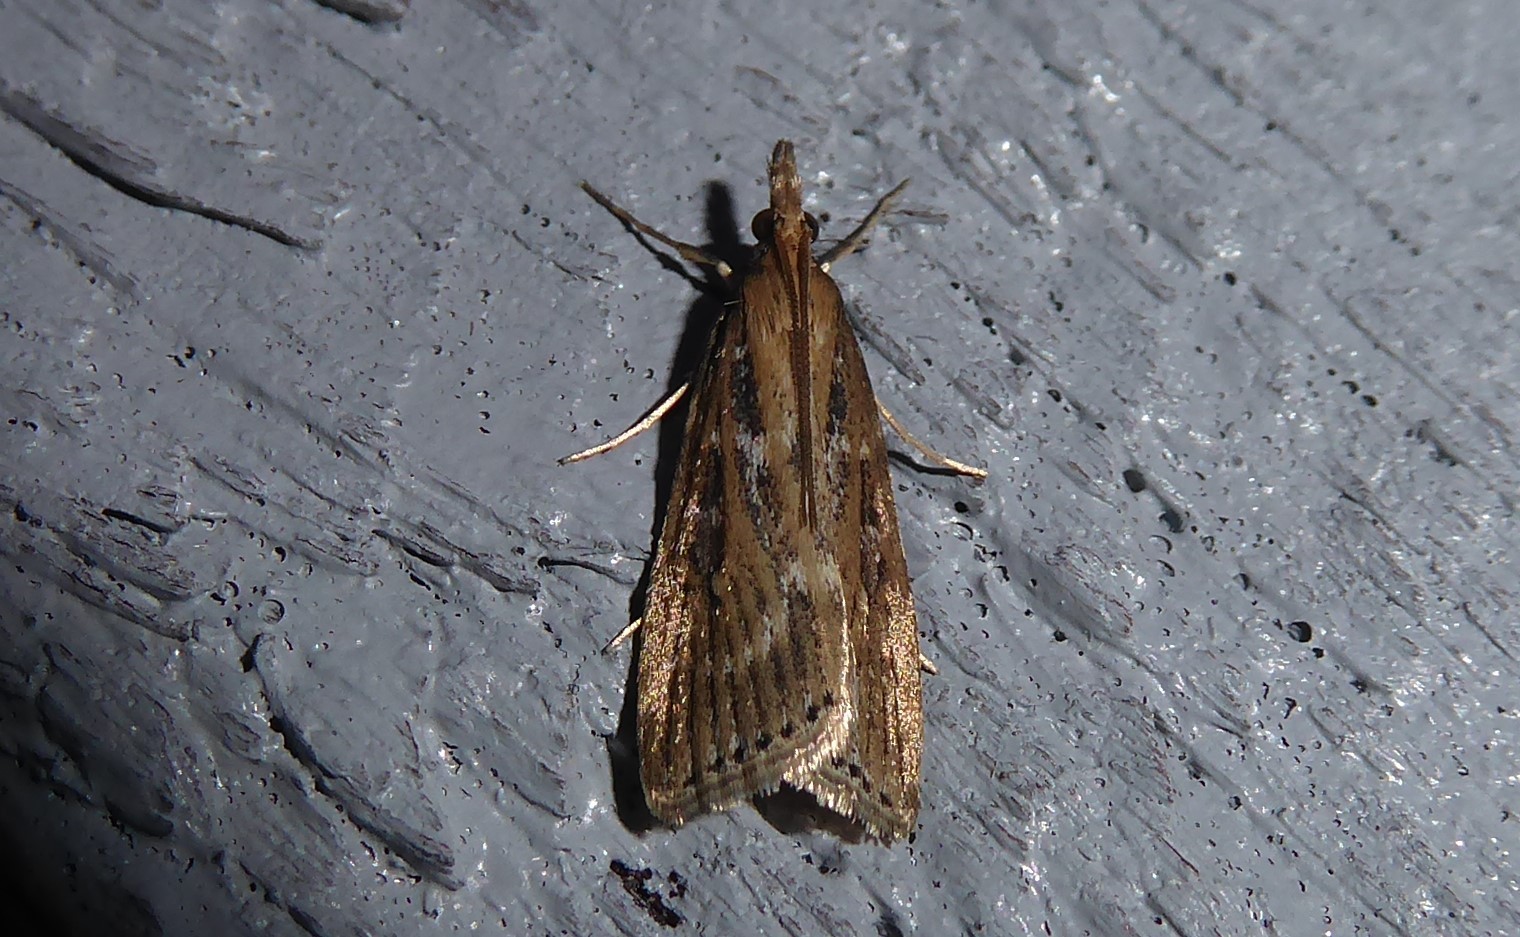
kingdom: Animalia
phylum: Arthropoda
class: Insecta
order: Lepidoptera
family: Crambidae
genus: Eudonia
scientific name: Eudonia octophora
